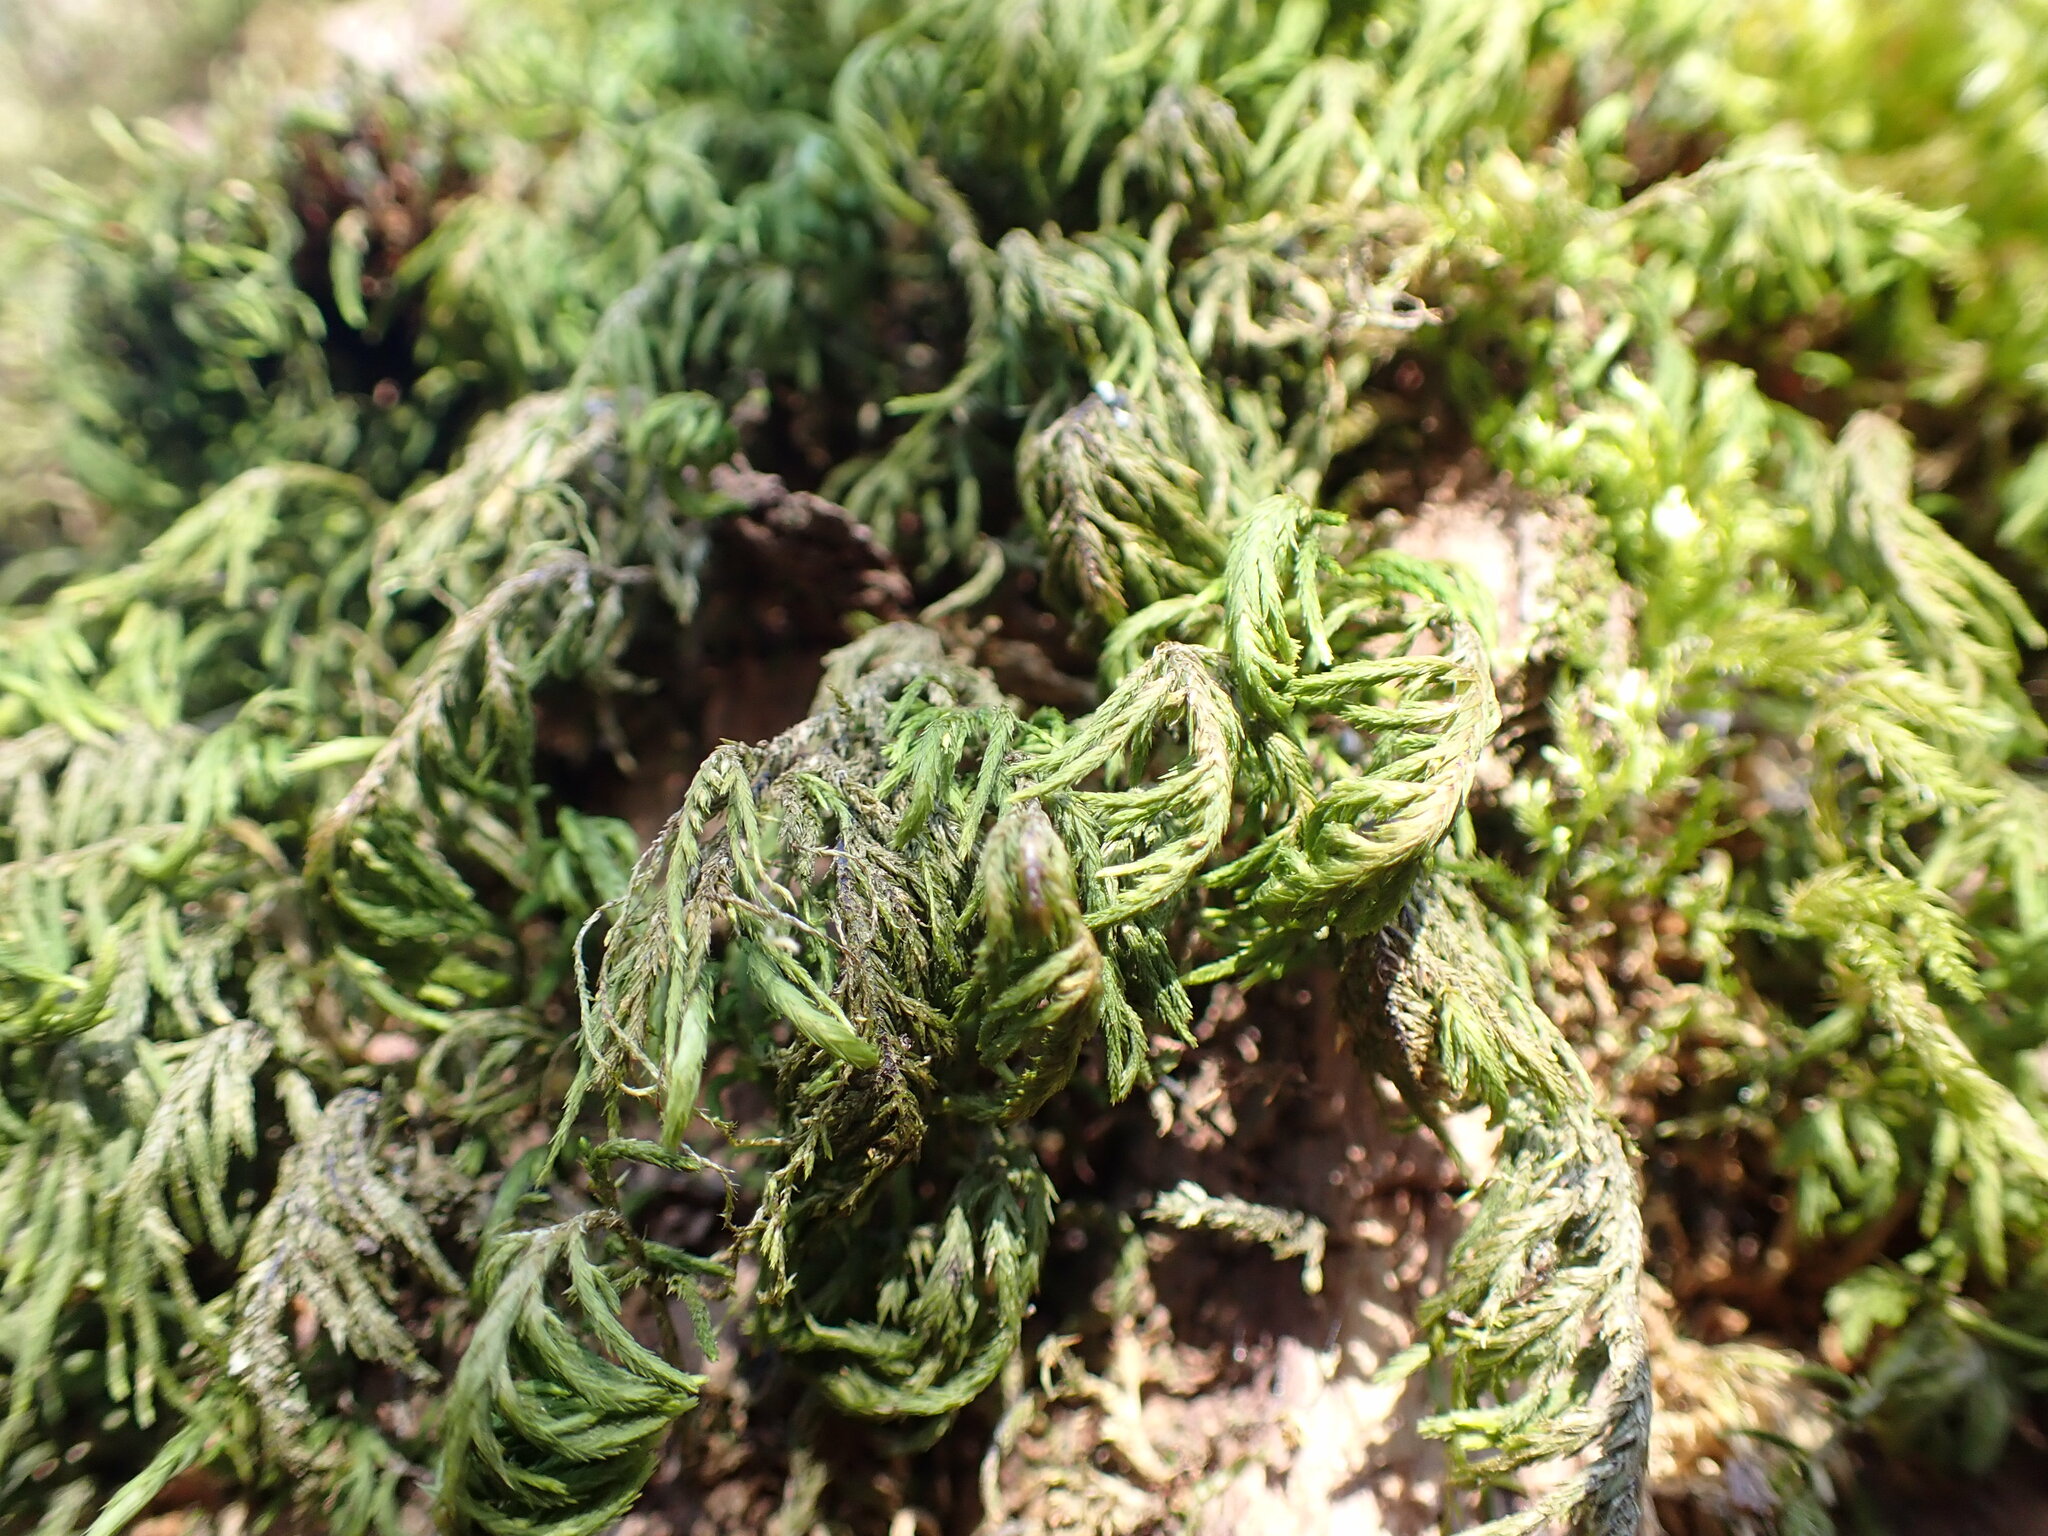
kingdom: Plantae
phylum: Bryophyta
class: Bryopsida
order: Hypnales
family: Cryphaeaceae
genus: Dendroalsia
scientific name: Dendroalsia abietina
